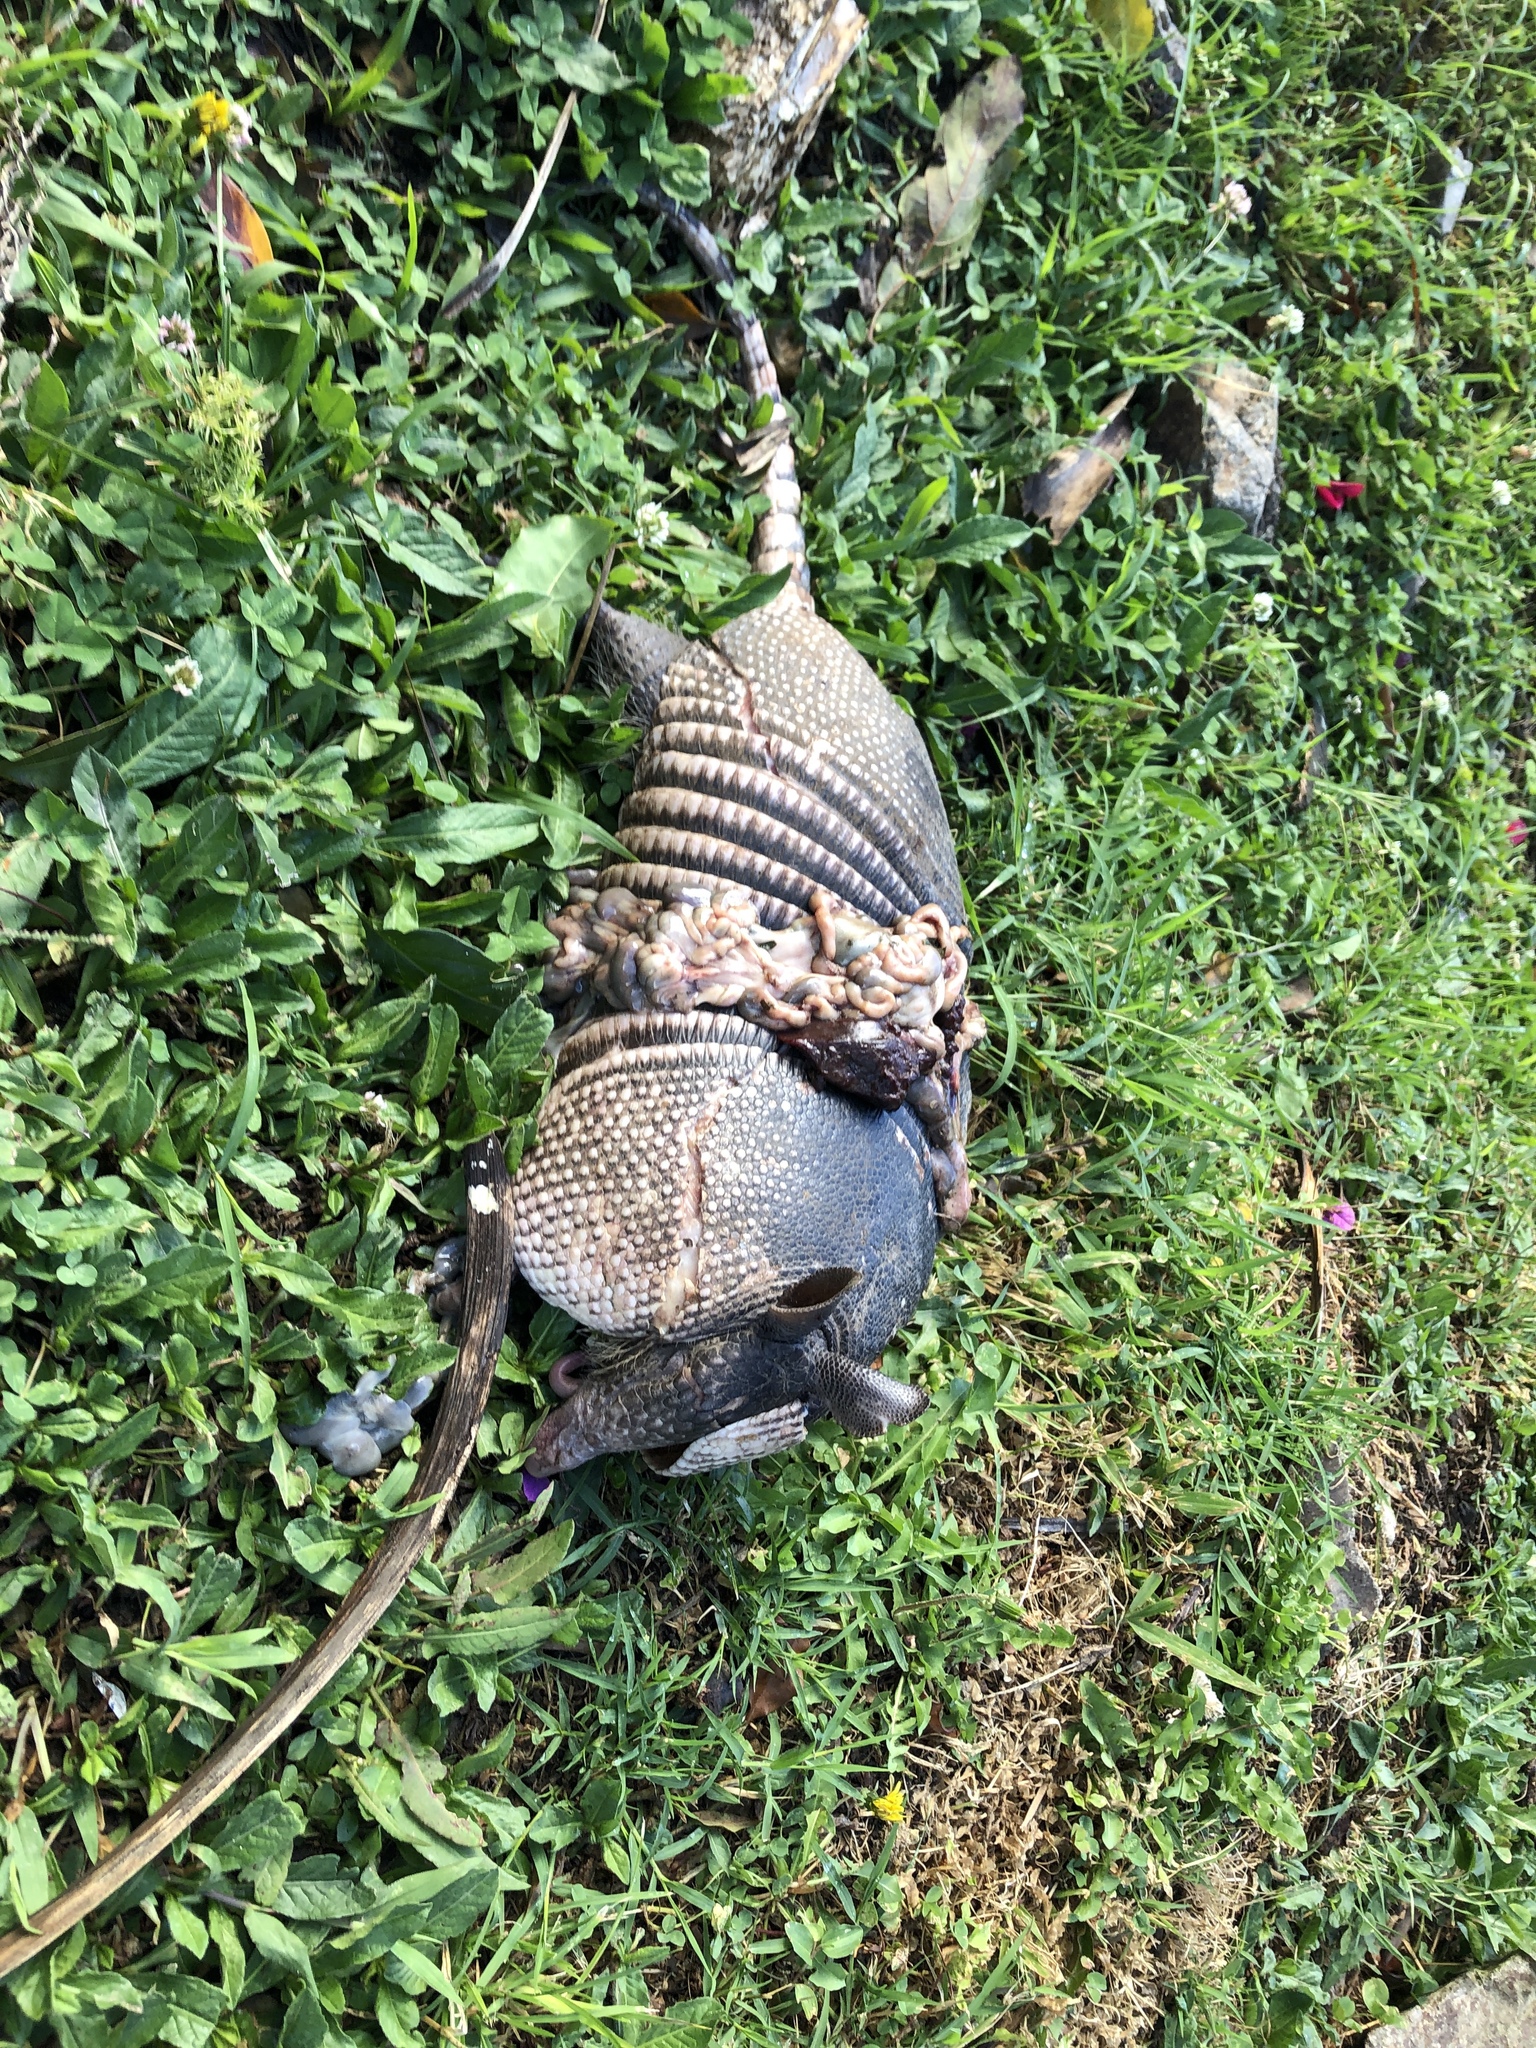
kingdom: Animalia
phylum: Chordata
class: Mammalia
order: Cingulata
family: Dasypodidae
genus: Dasypus
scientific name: Dasypus novemcinctus
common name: Nine-banded armadillo
